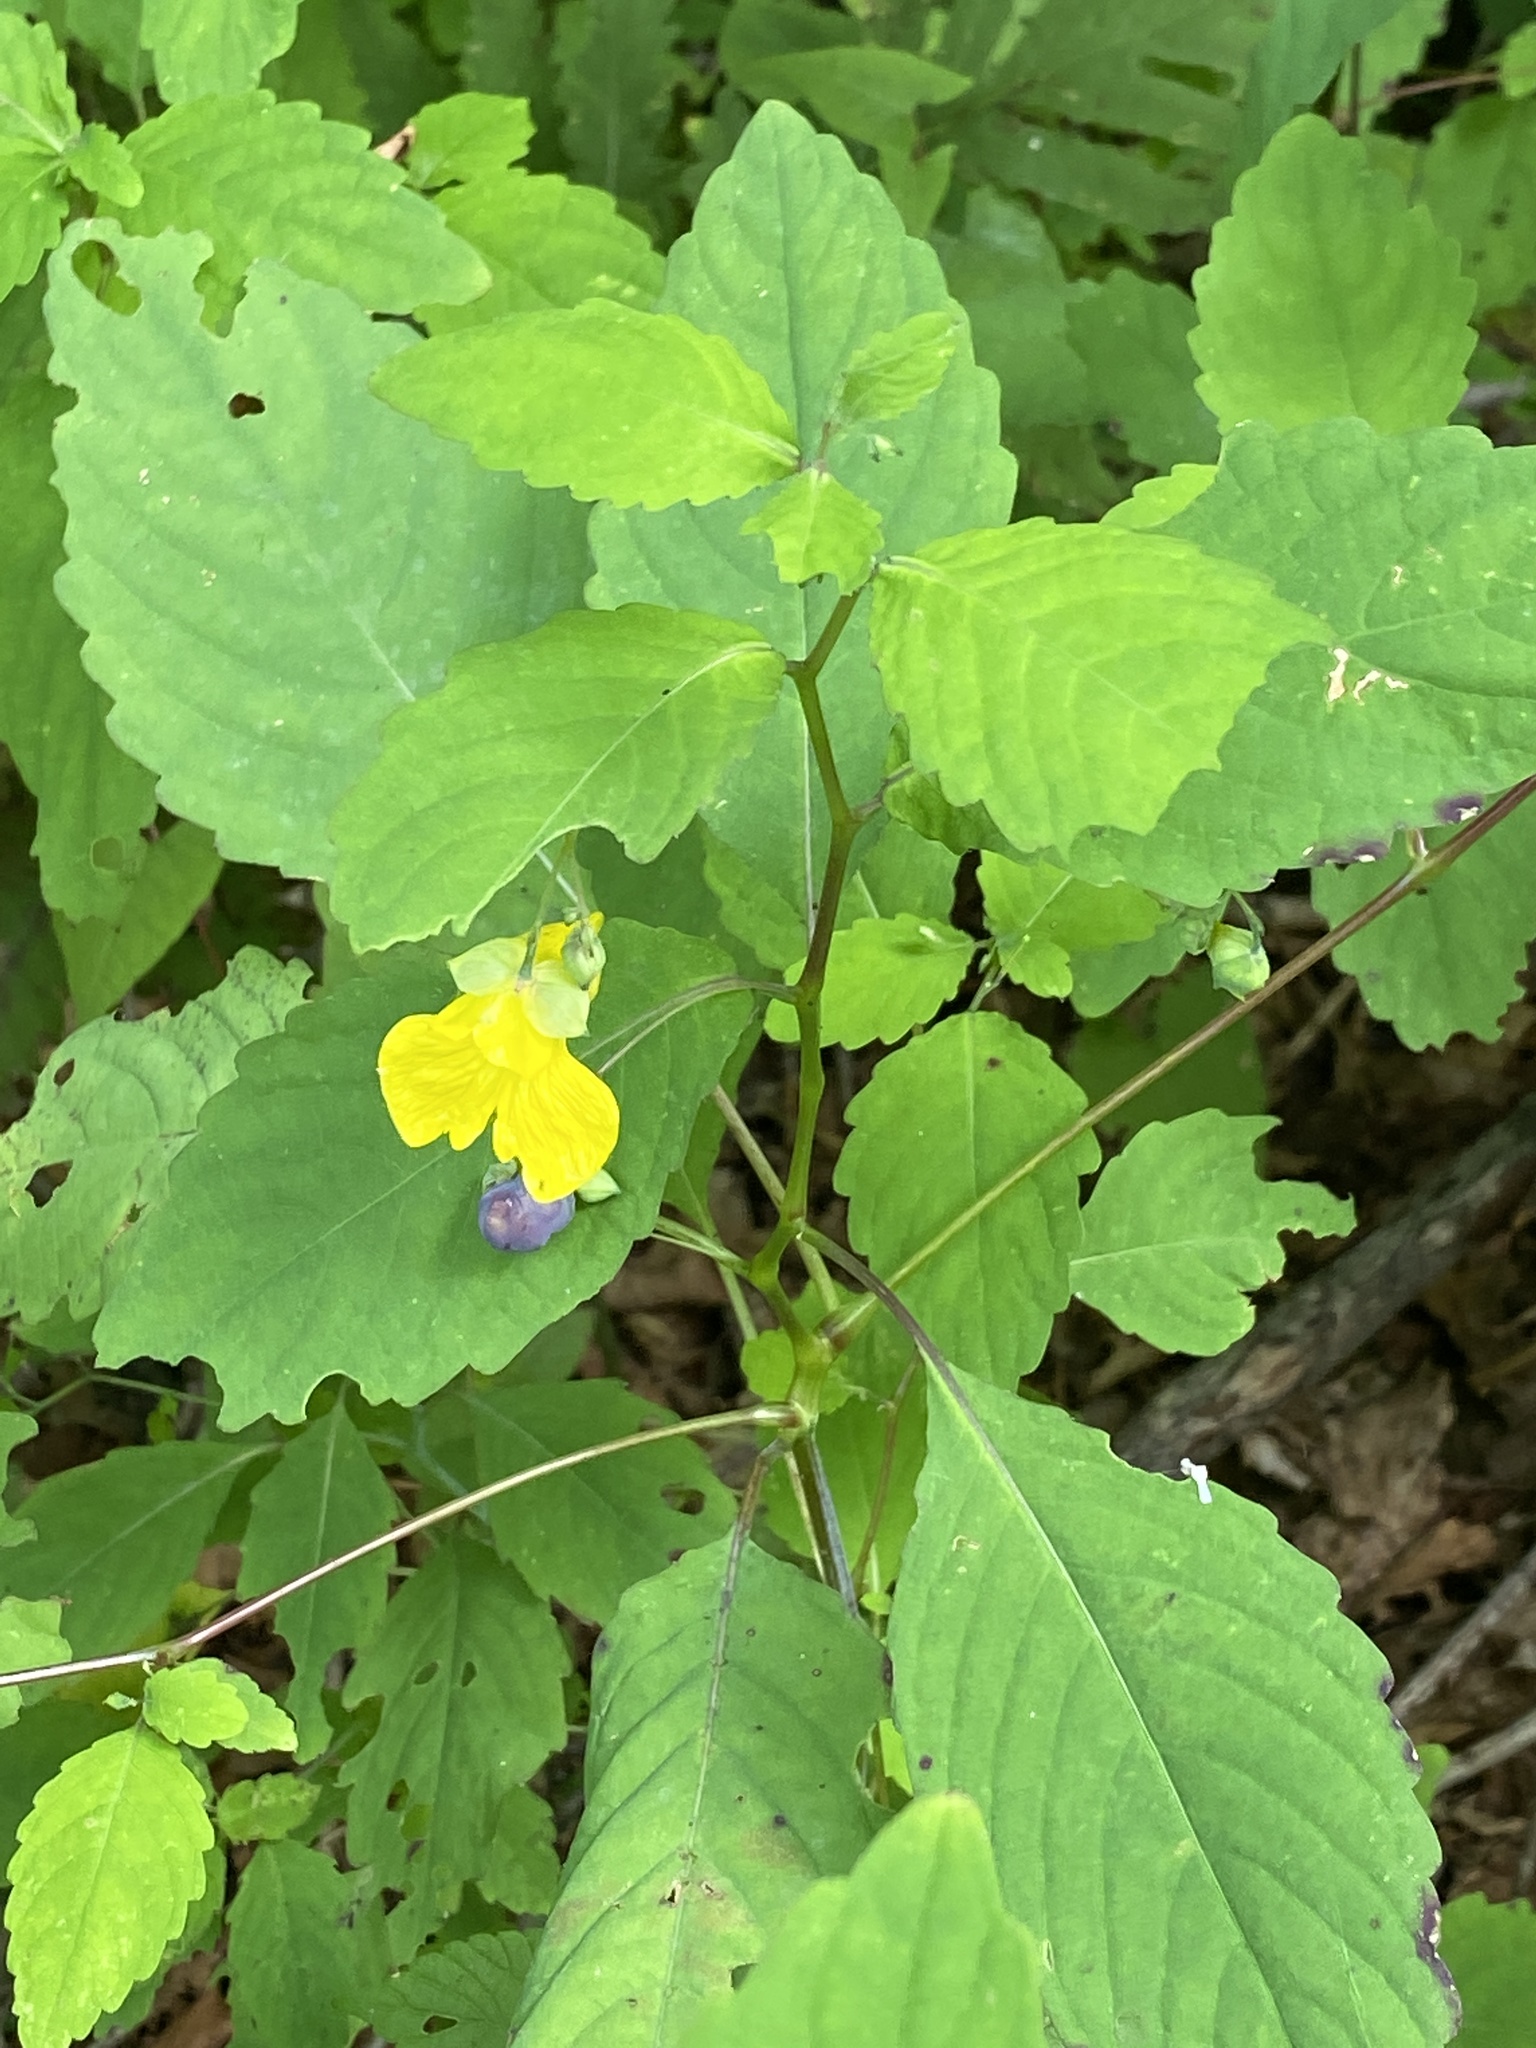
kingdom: Plantae
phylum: Tracheophyta
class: Magnoliopsida
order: Ericales
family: Balsaminaceae
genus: Impatiens
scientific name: Impatiens pallida
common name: Pale snapweed
